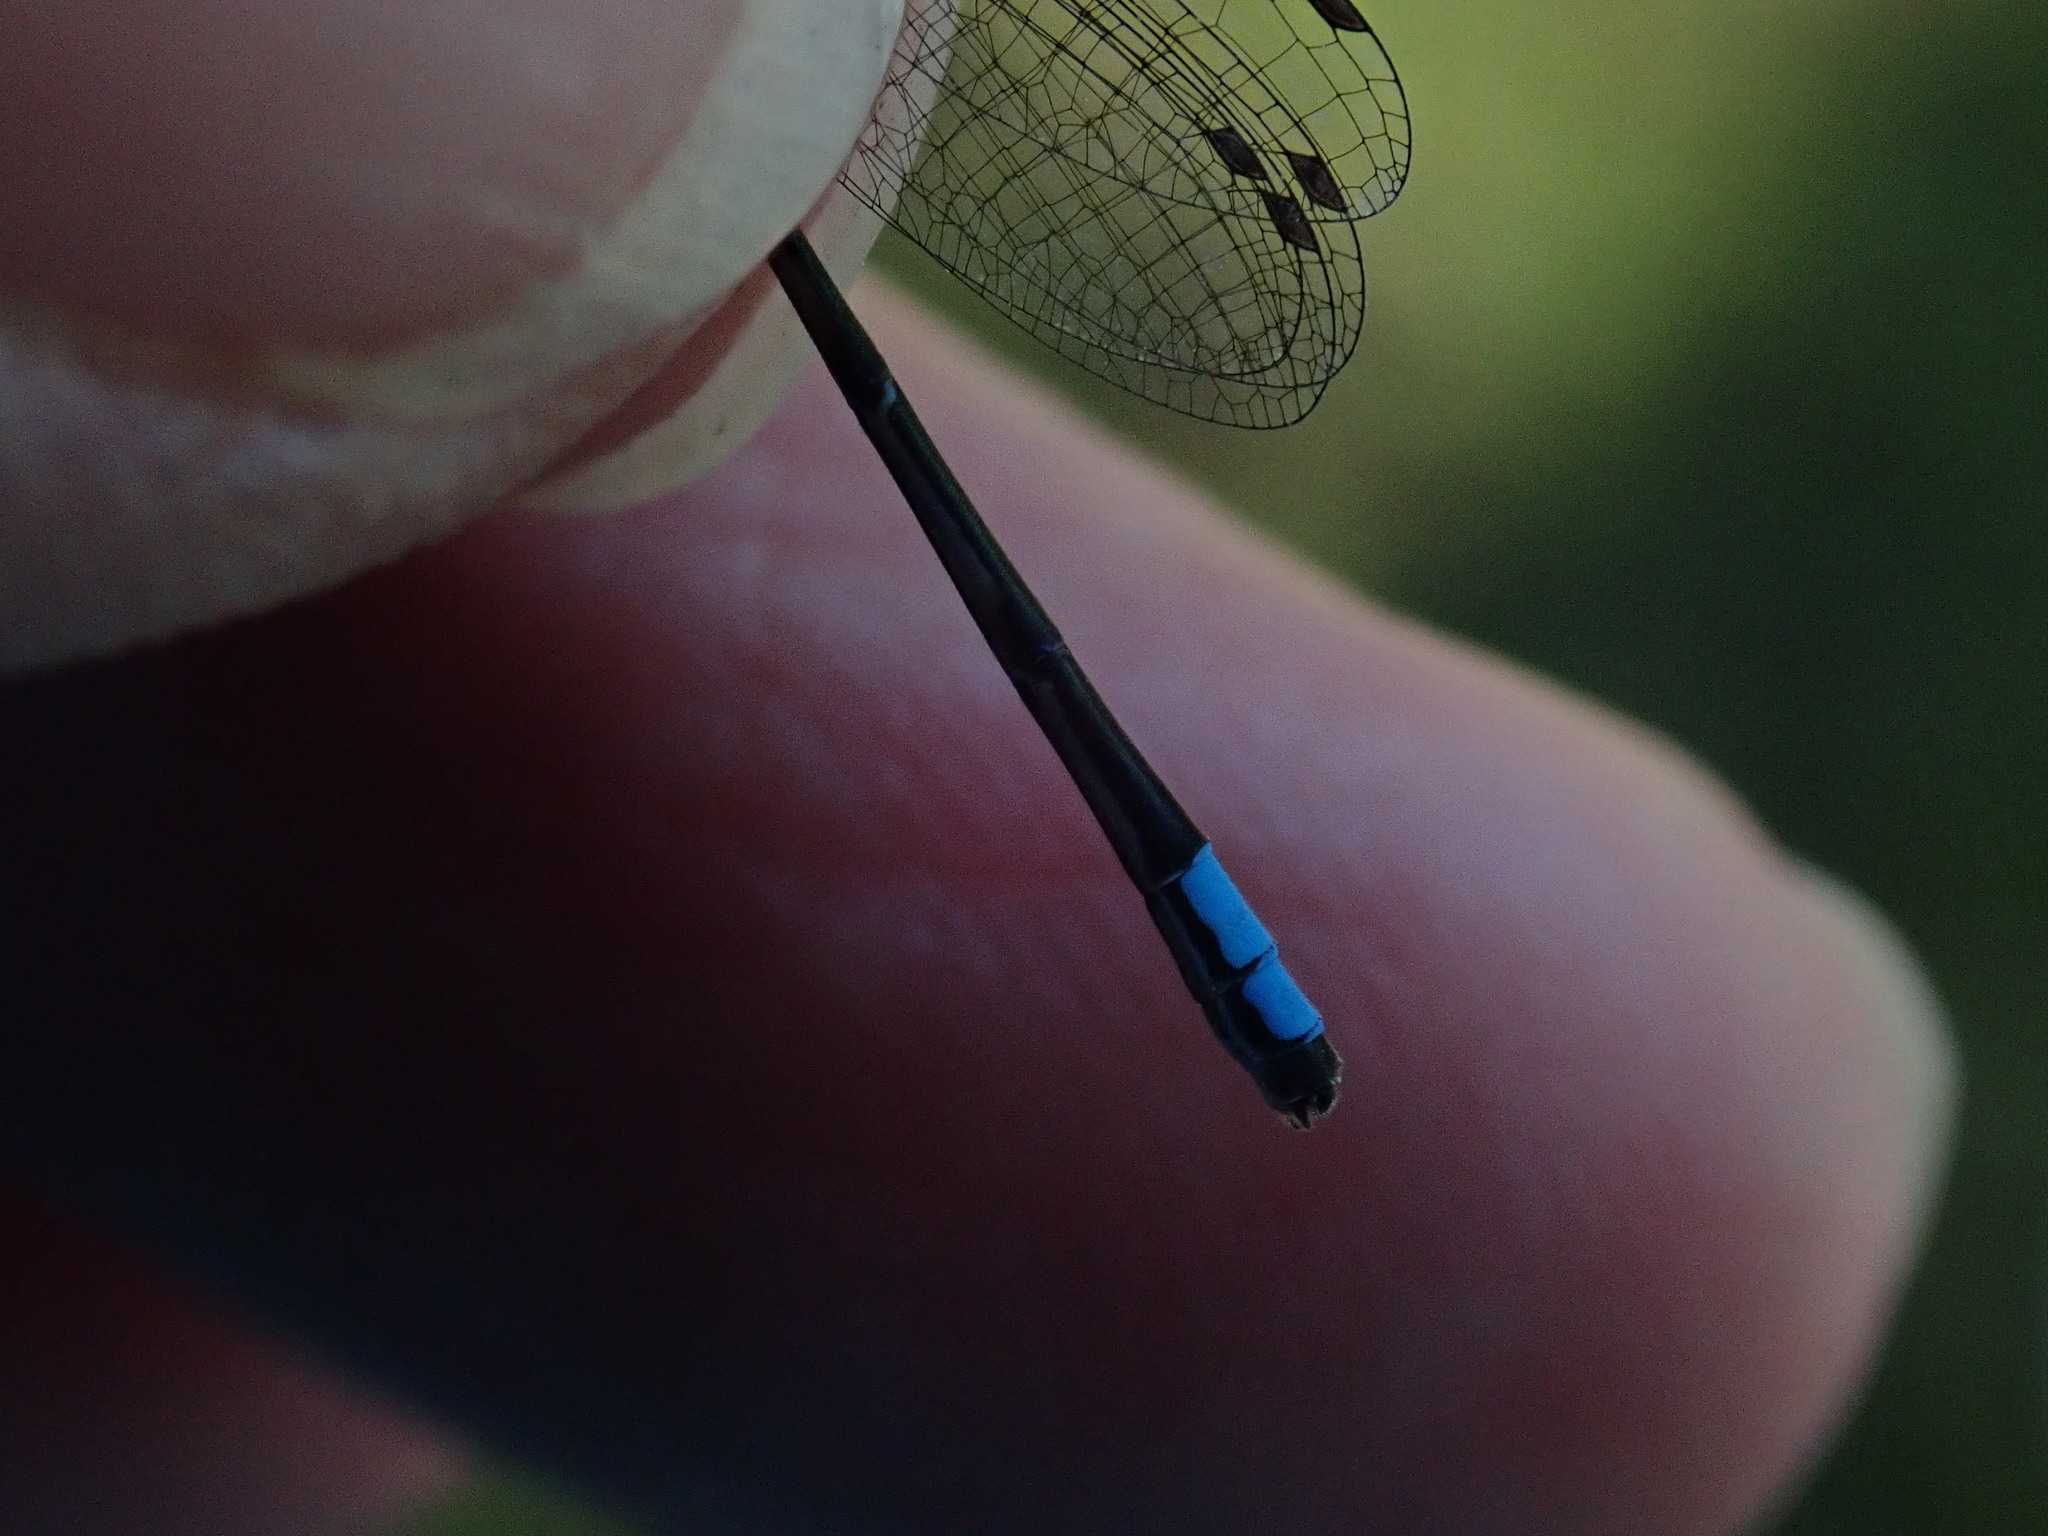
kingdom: Animalia
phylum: Arthropoda
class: Insecta
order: Odonata
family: Coenagrionidae
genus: Enallagma
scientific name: Enallagma geminatum
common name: Skimming bluet
